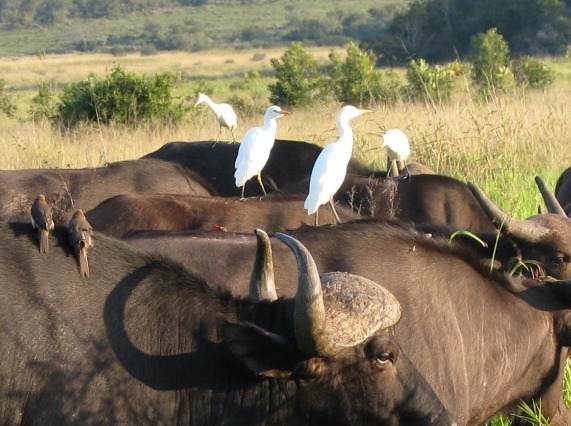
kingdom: Animalia
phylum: Chordata
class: Aves
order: Pelecaniformes
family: Ardeidae
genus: Bubulcus
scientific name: Bubulcus ibis
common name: Cattle egret
